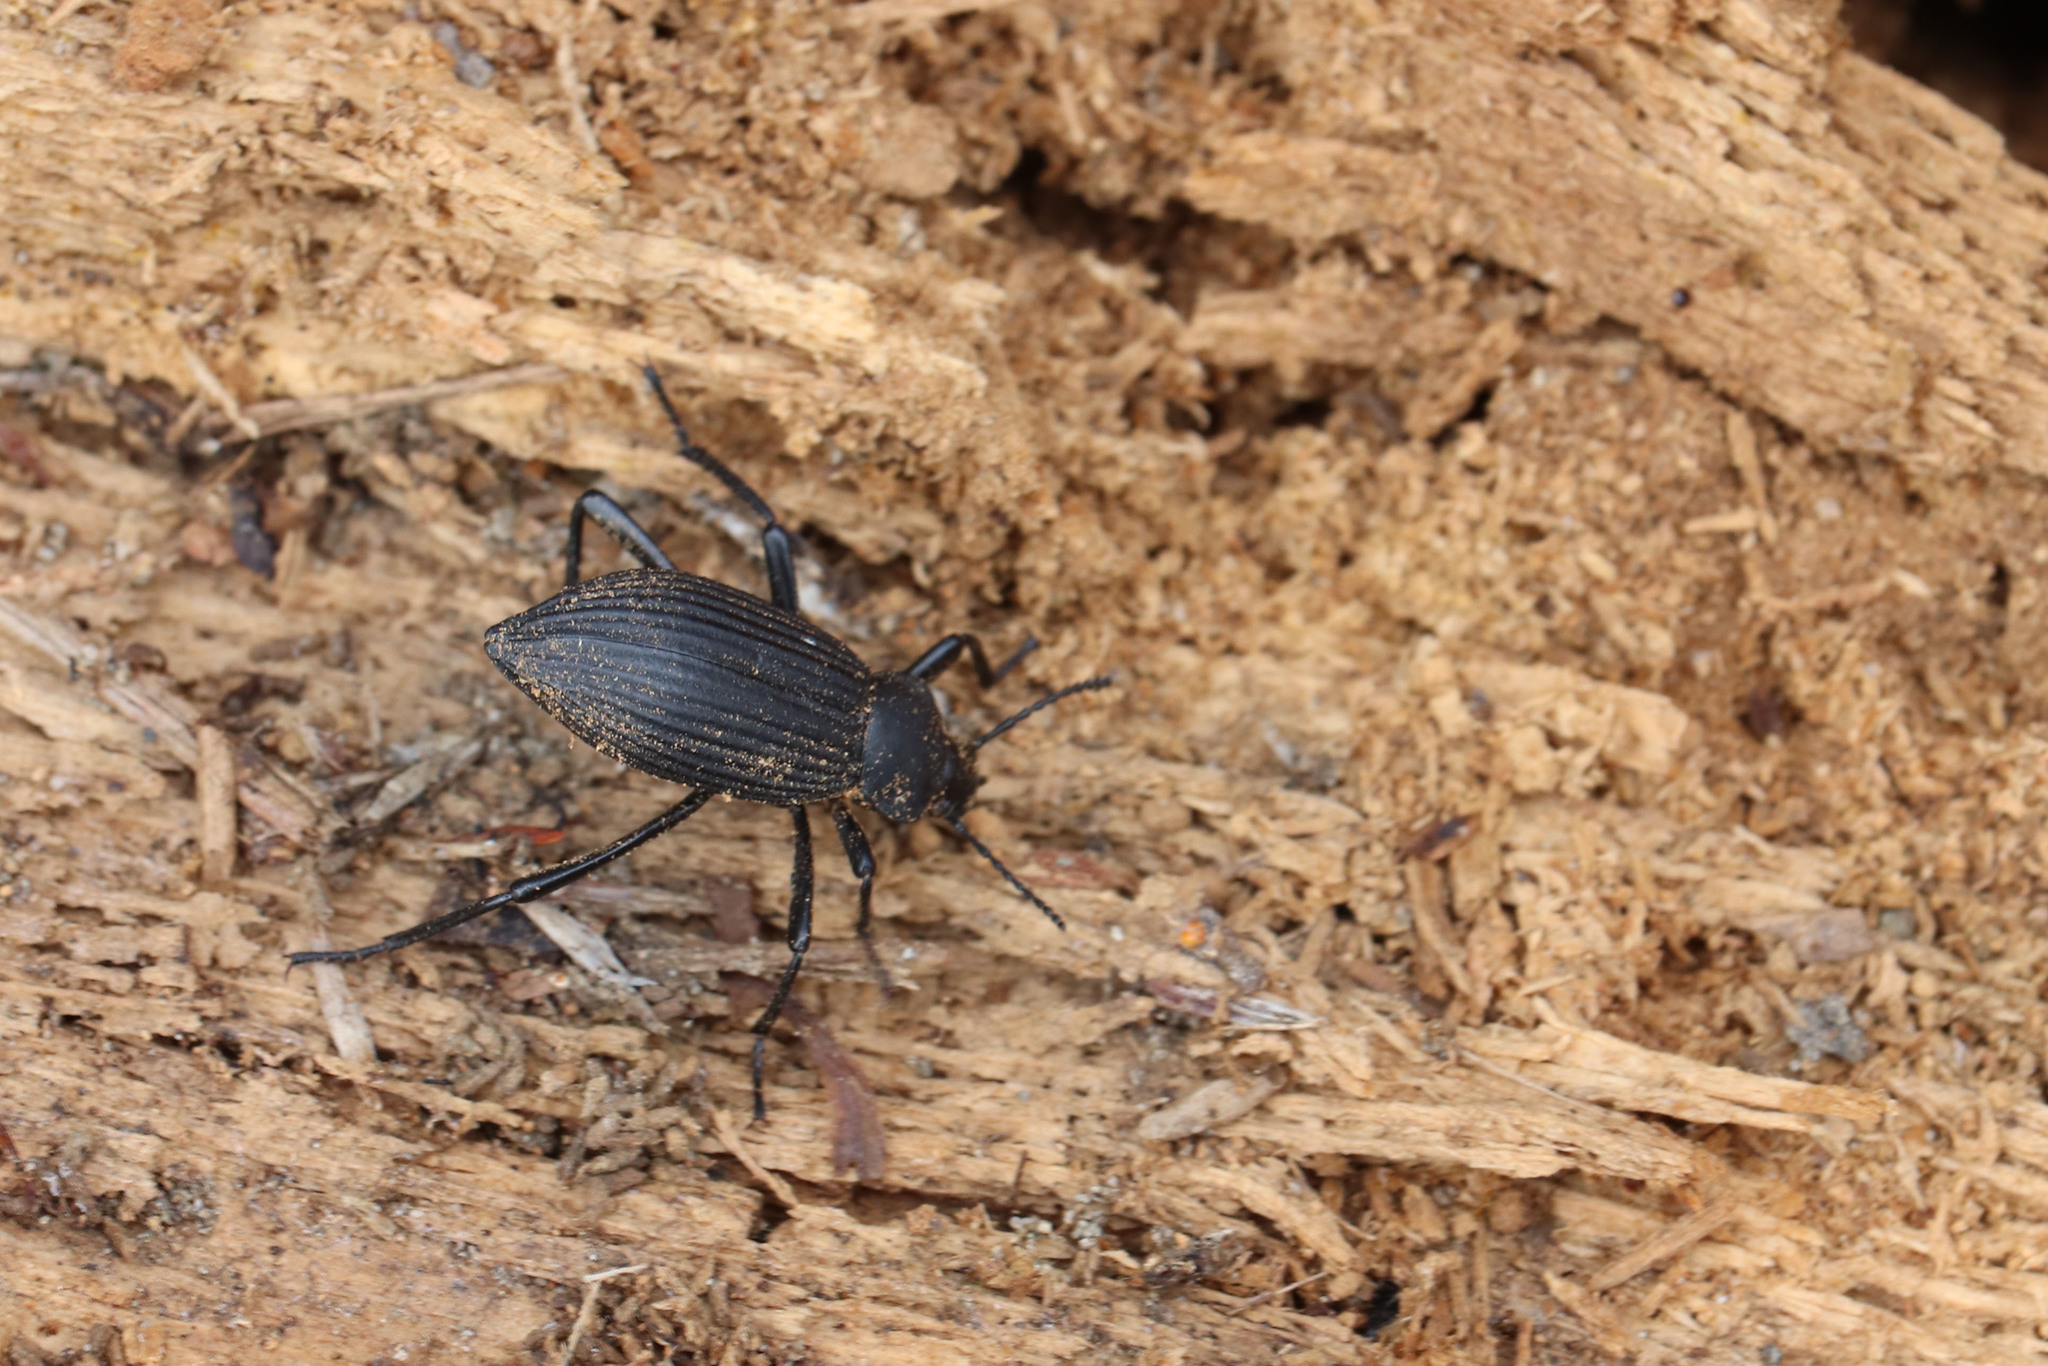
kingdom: Animalia
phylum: Arthropoda
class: Insecta
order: Coleoptera
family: Tenebrionidae
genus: Eleodes
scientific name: Eleodes hispilabris
